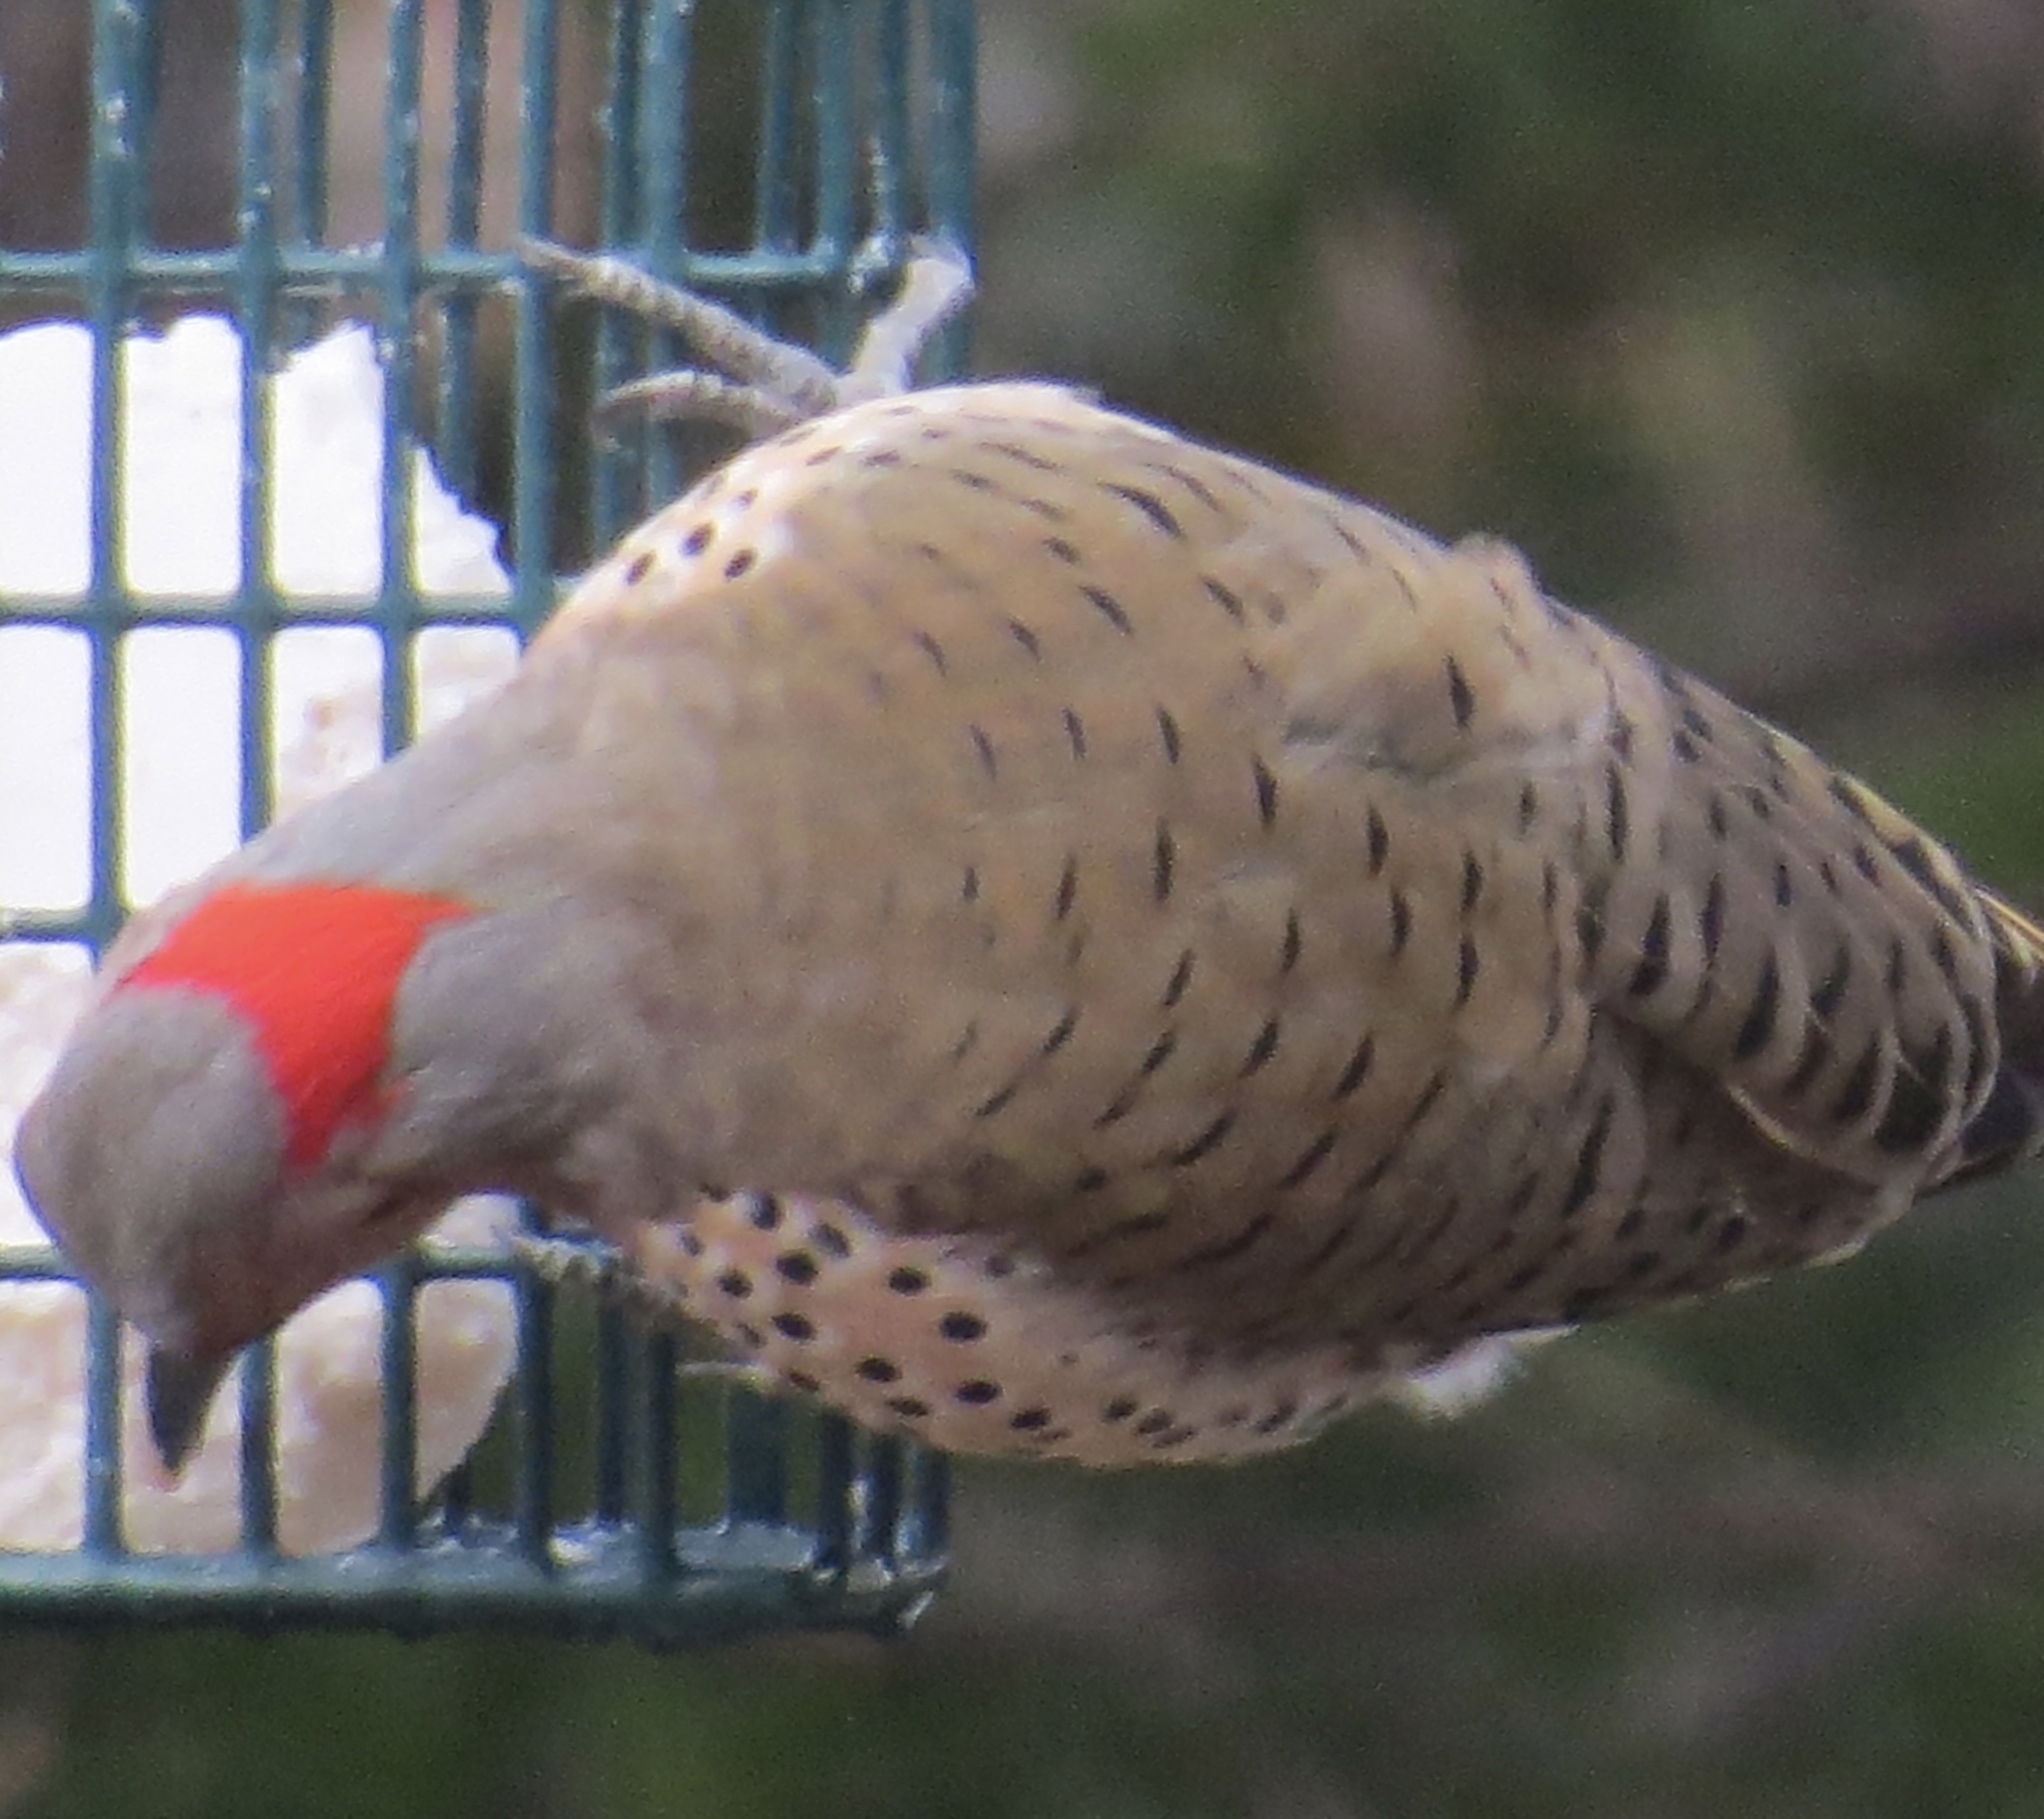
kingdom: Animalia
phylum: Chordata
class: Aves
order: Piciformes
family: Picidae
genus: Colaptes
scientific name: Colaptes auratus
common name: Northern flicker
